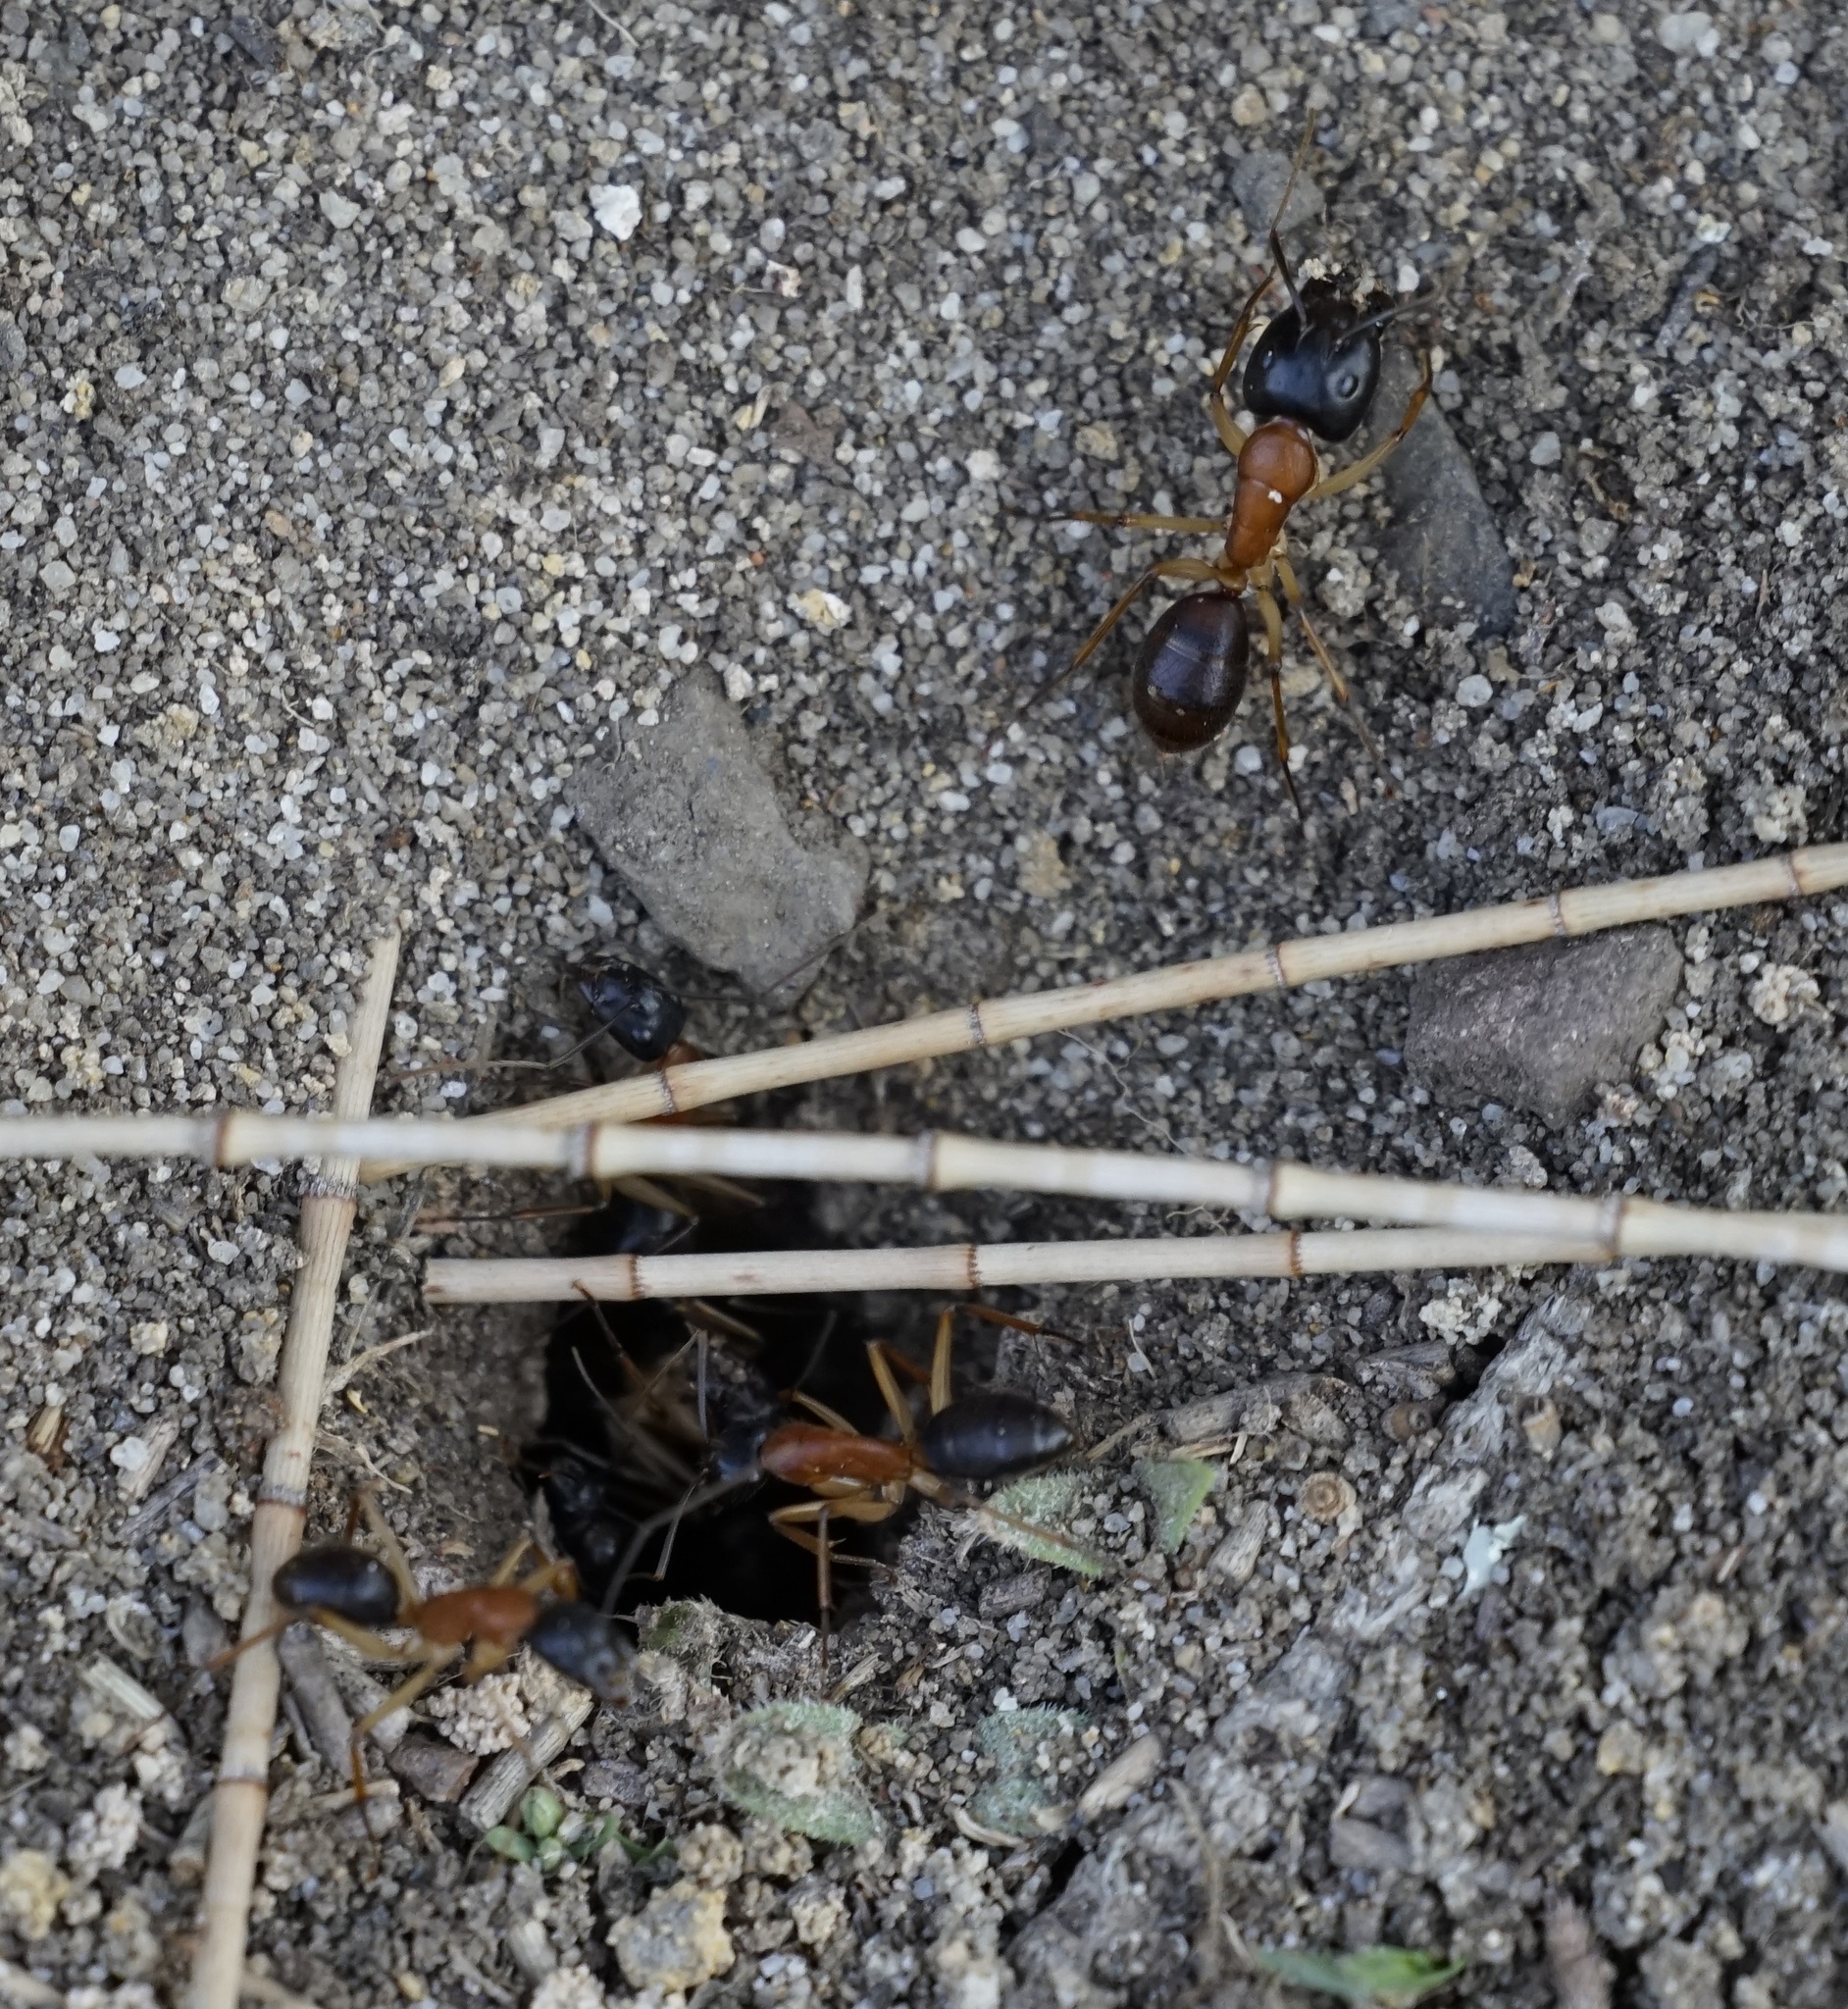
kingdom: Animalia
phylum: Arthropoda
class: Insecta
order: Hymenoptera
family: Formicidae
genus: Camponotus
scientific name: Camponotus nigriceps
